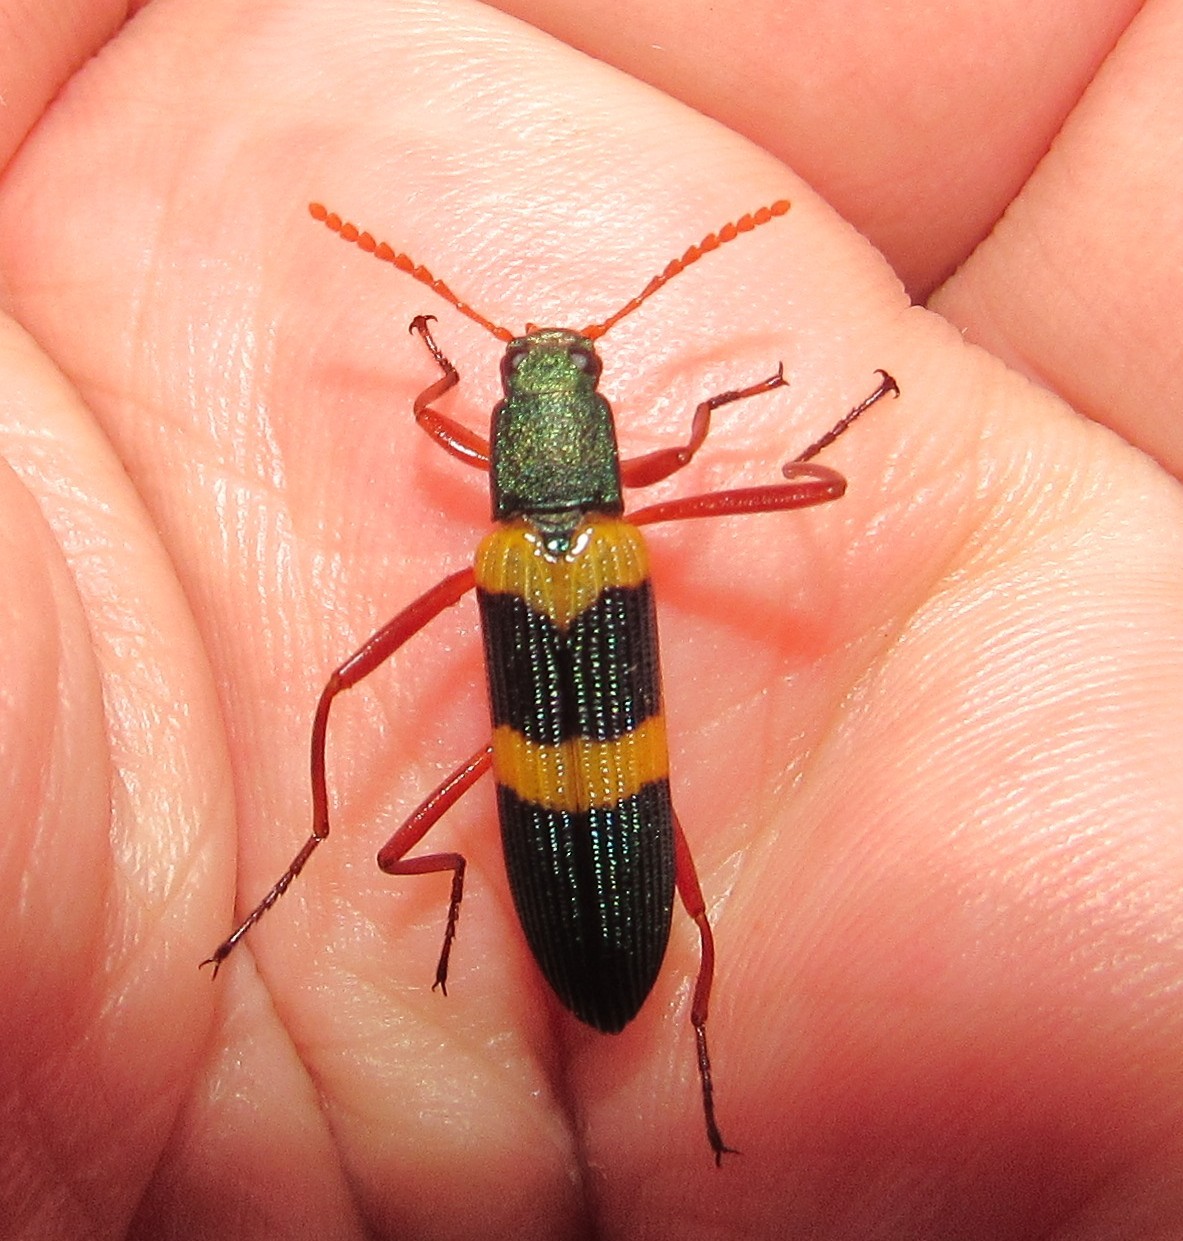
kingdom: Animalia
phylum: Arthropoda
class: Insecta
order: Coleoptera
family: Tenebrionidae
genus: Strongylium
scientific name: Strongylium
